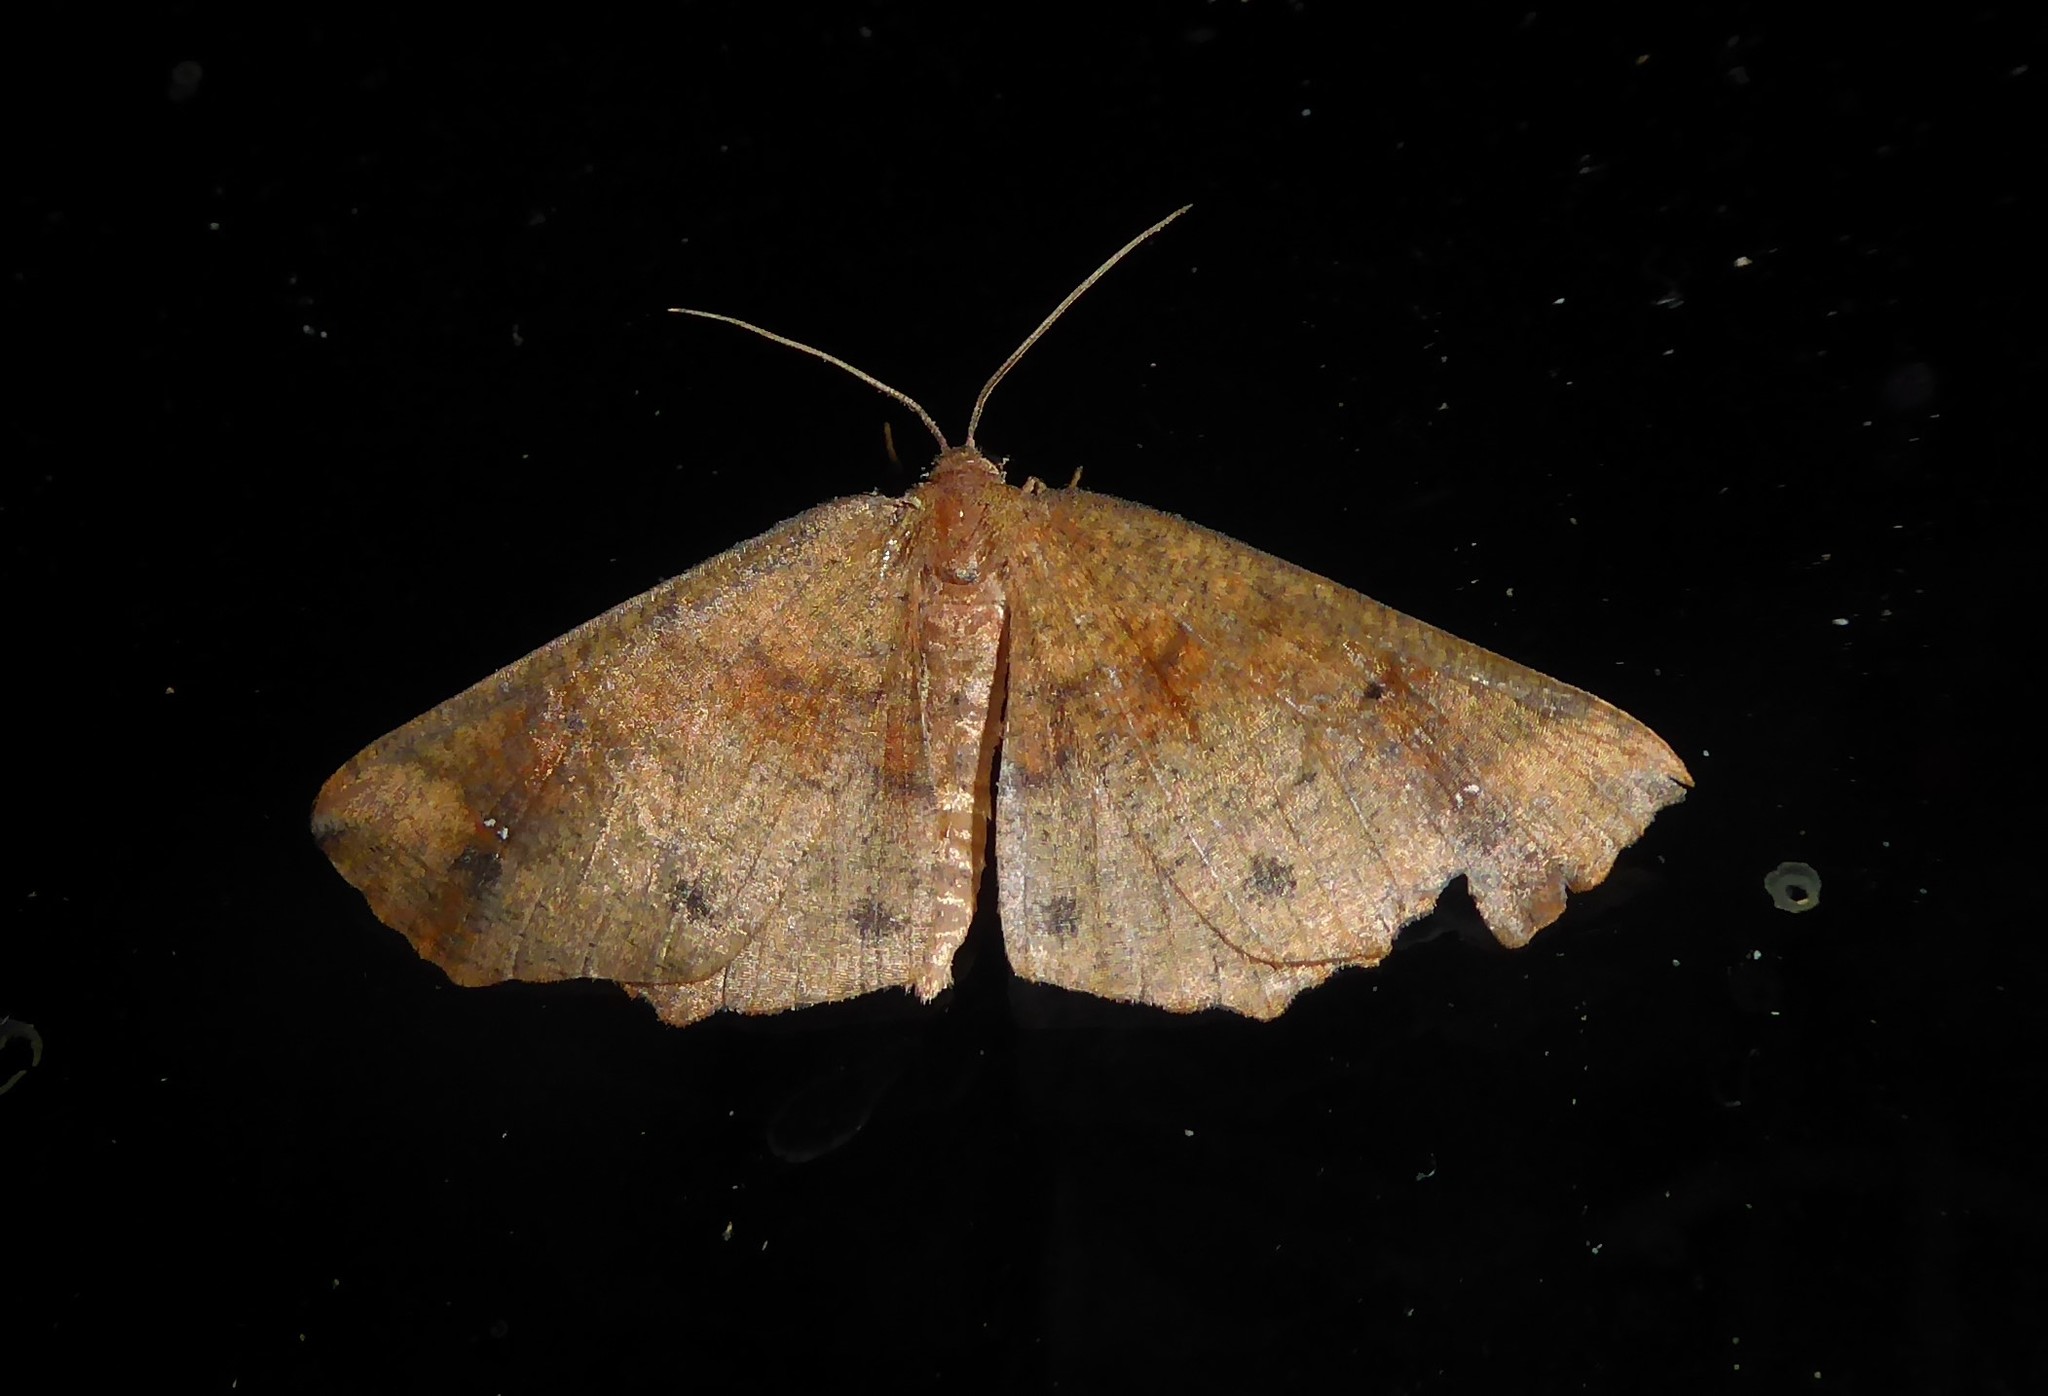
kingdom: Animalia
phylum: Arthropoda
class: Insecta
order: Lepidoptera
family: Geometridae
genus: Xyridacma
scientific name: Xyridacma ustaria
